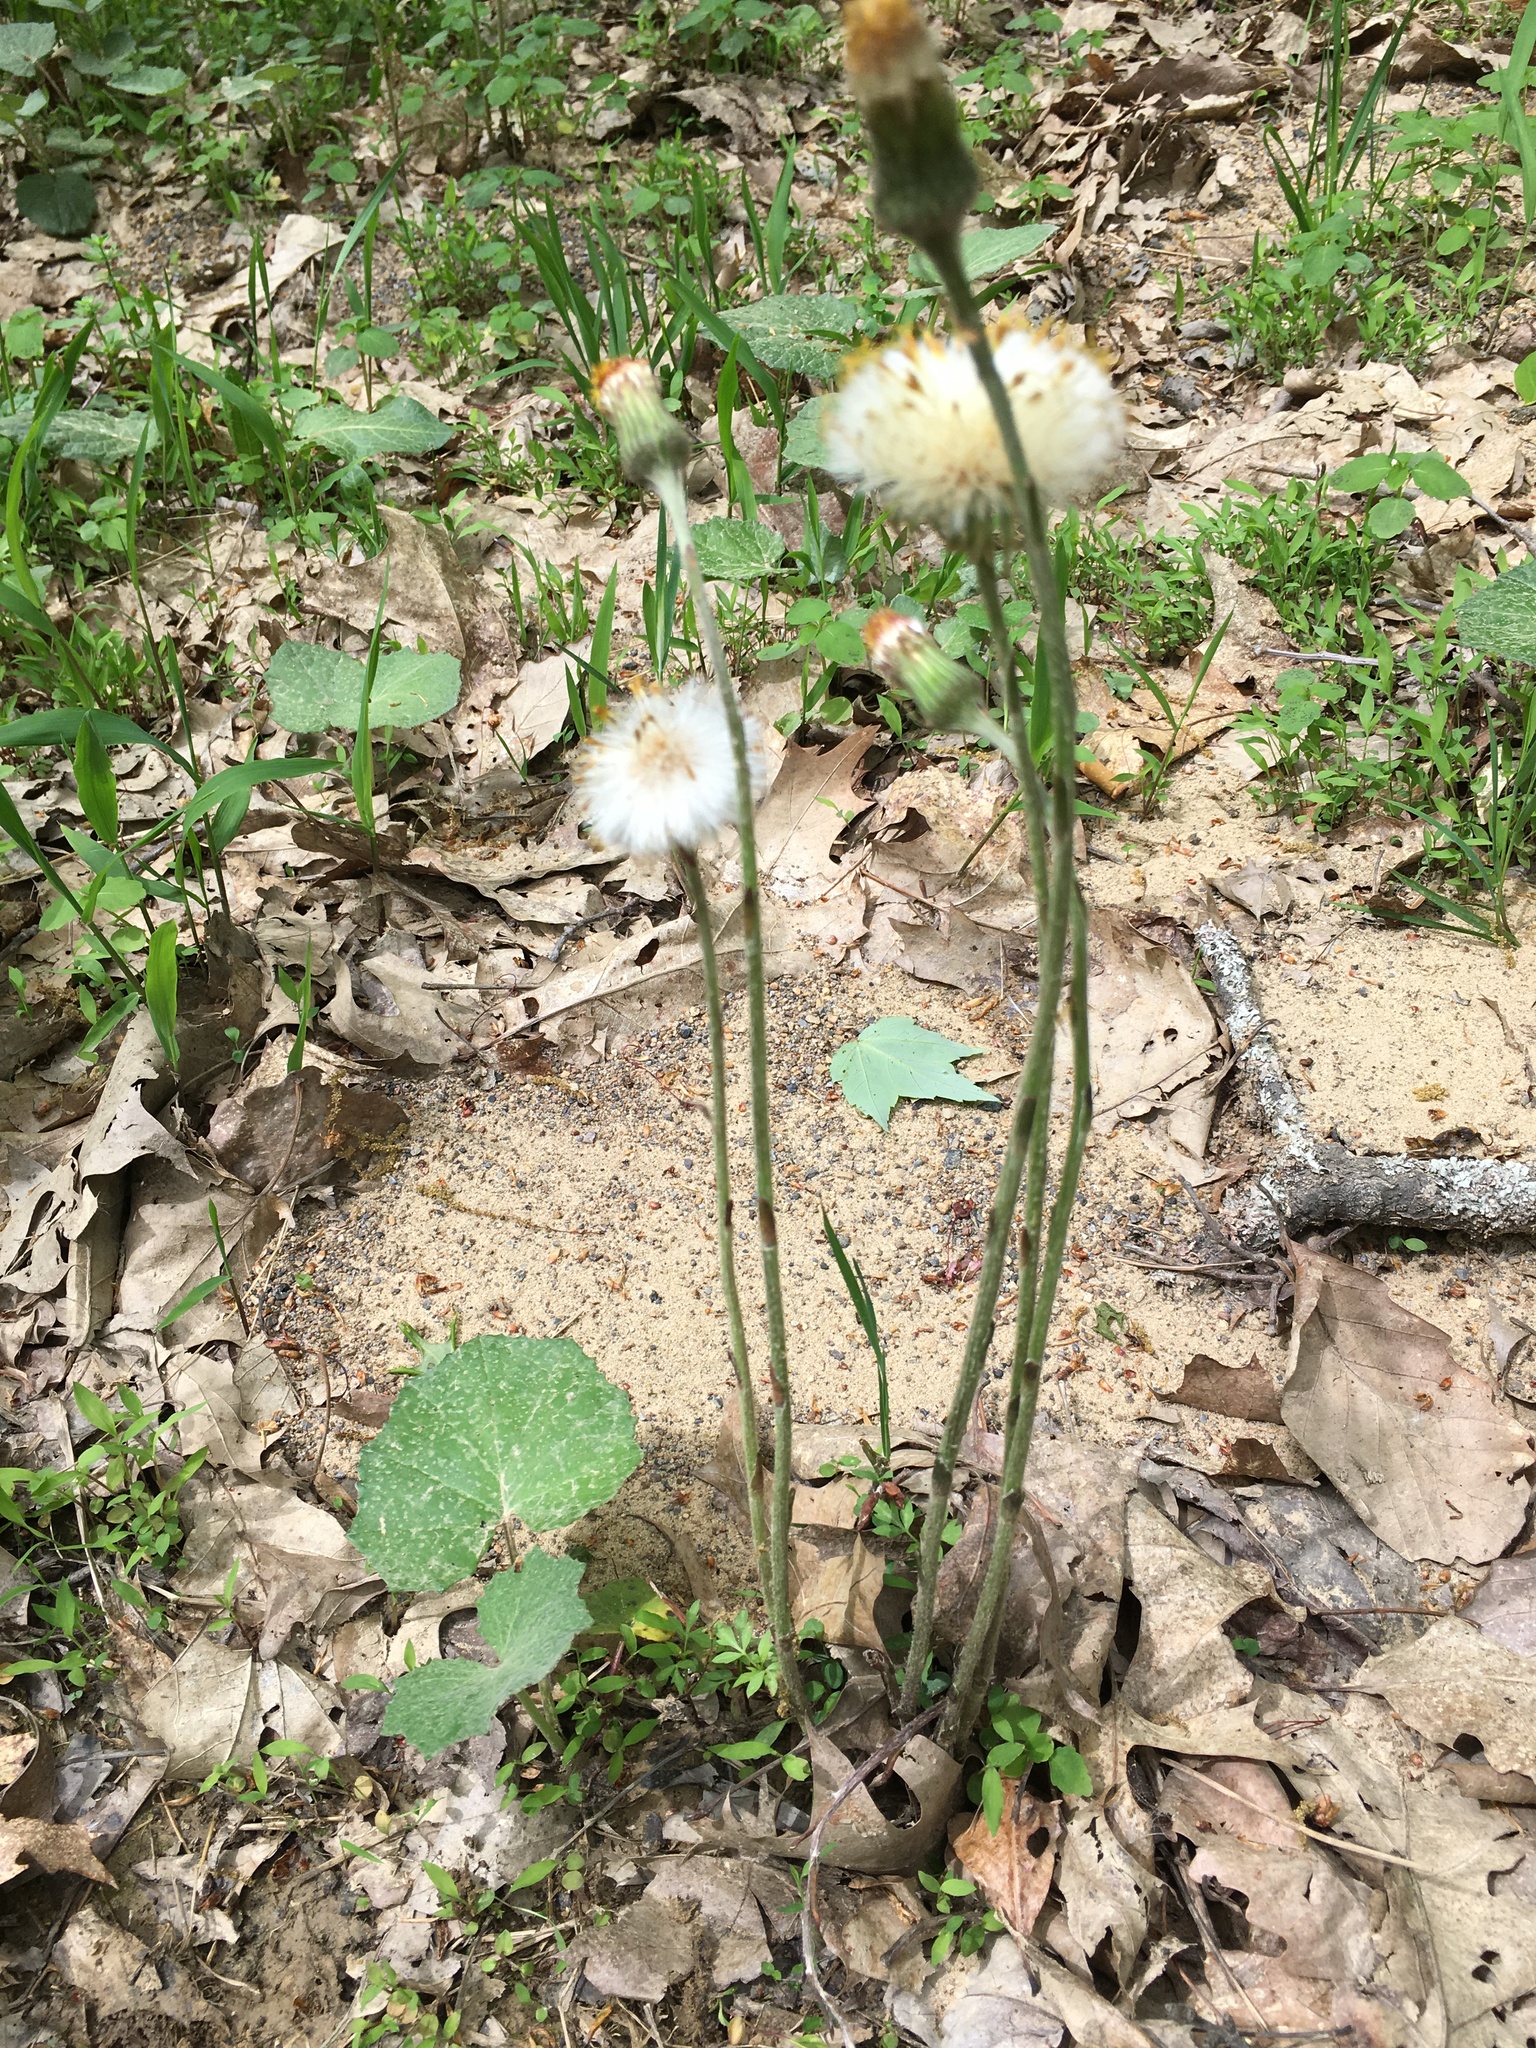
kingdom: Plantae
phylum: Tracheophyta
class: Magnoliopsida
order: Asterales
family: Asteraceae
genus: Tussilago
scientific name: Tussilago farfara
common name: Coltsfoot
